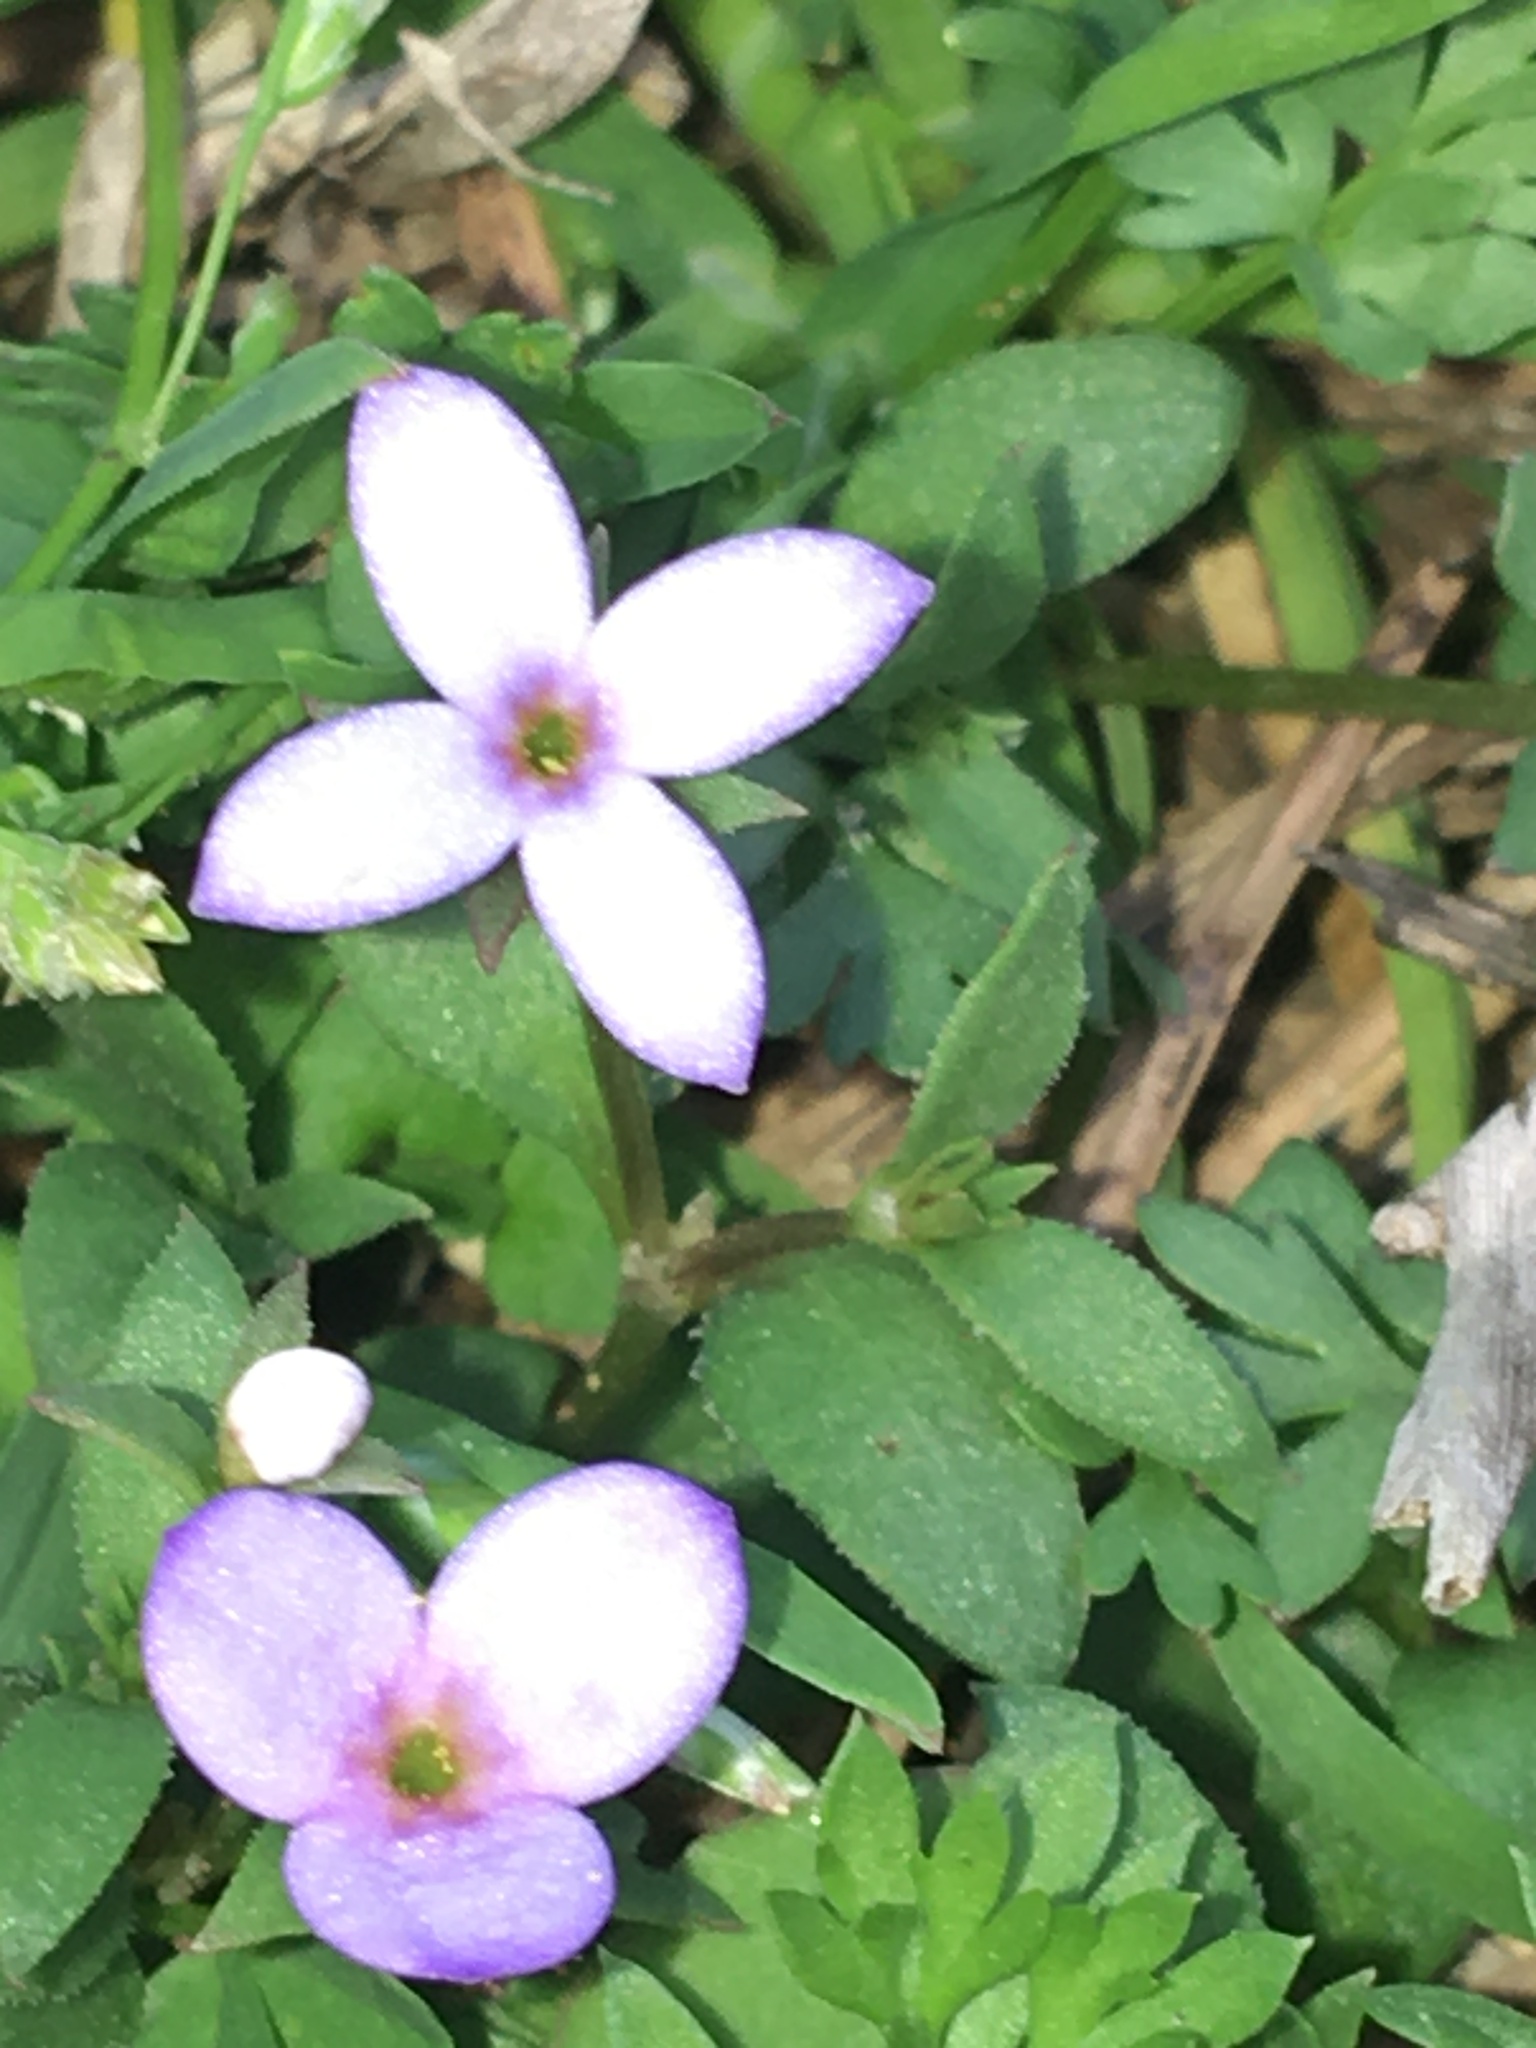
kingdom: Plantae
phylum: Tracheophyta
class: Magnoliopsida
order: Gentianales
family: Rubiaceae
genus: Houstonia
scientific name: Houstonia pusilla
